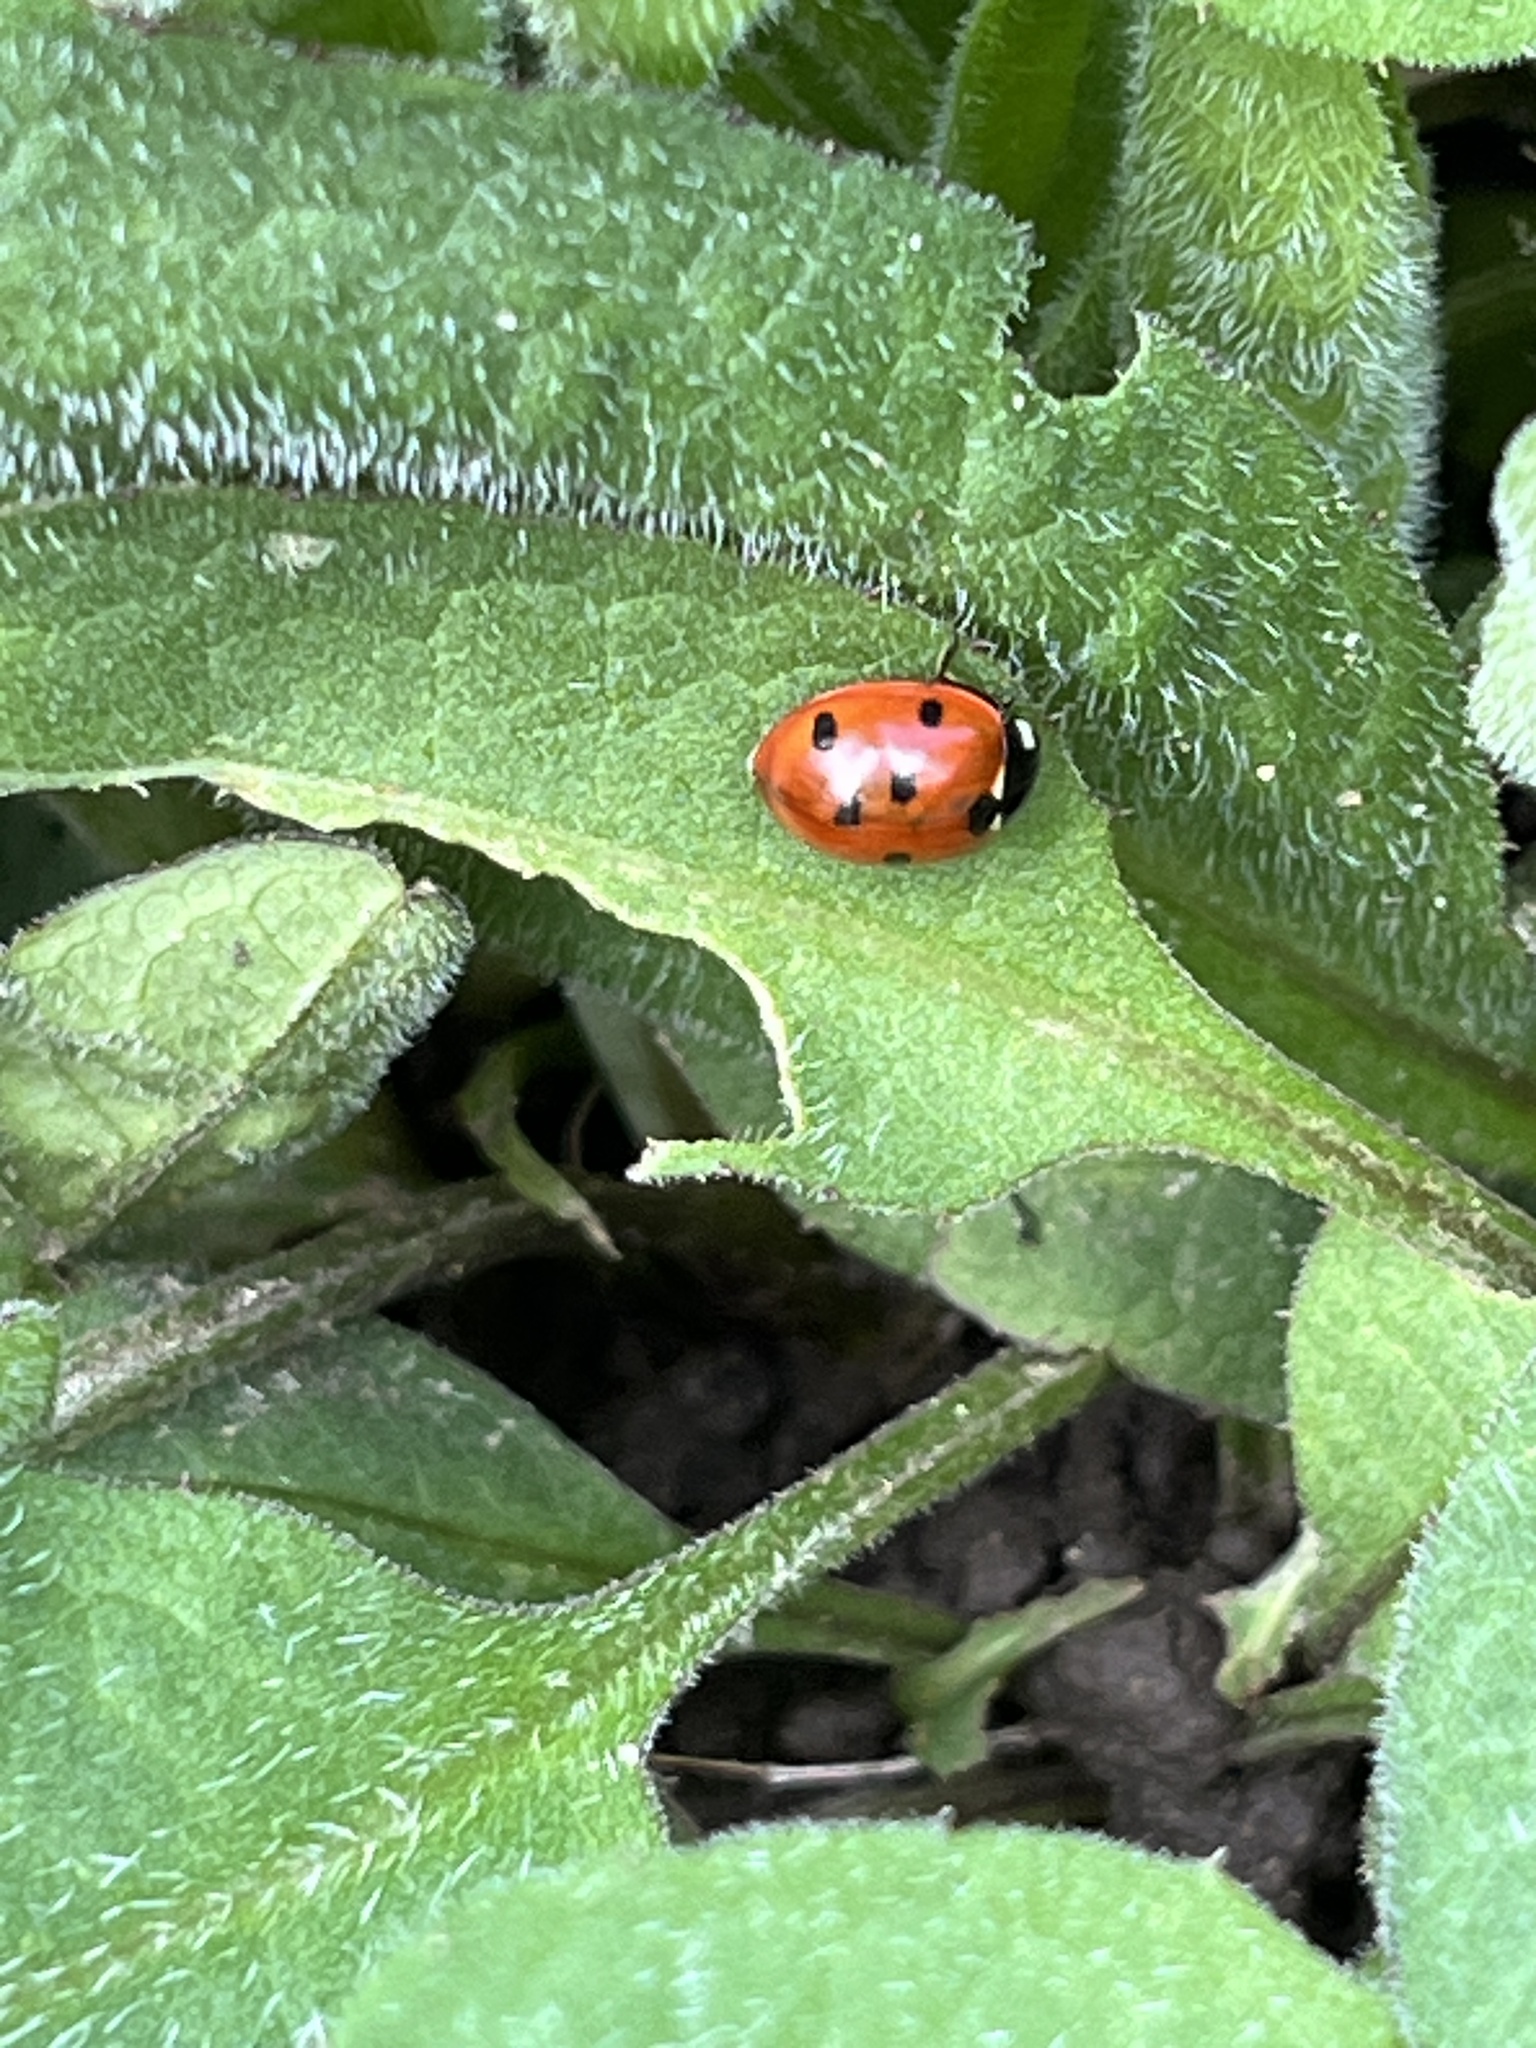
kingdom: Animalia
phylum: Arthropoda
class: Insecta
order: Coleoptera
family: Coccinellidae
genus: Coccinella
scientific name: Coccinella septempunctata
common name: Sevenspotted lady beetle
